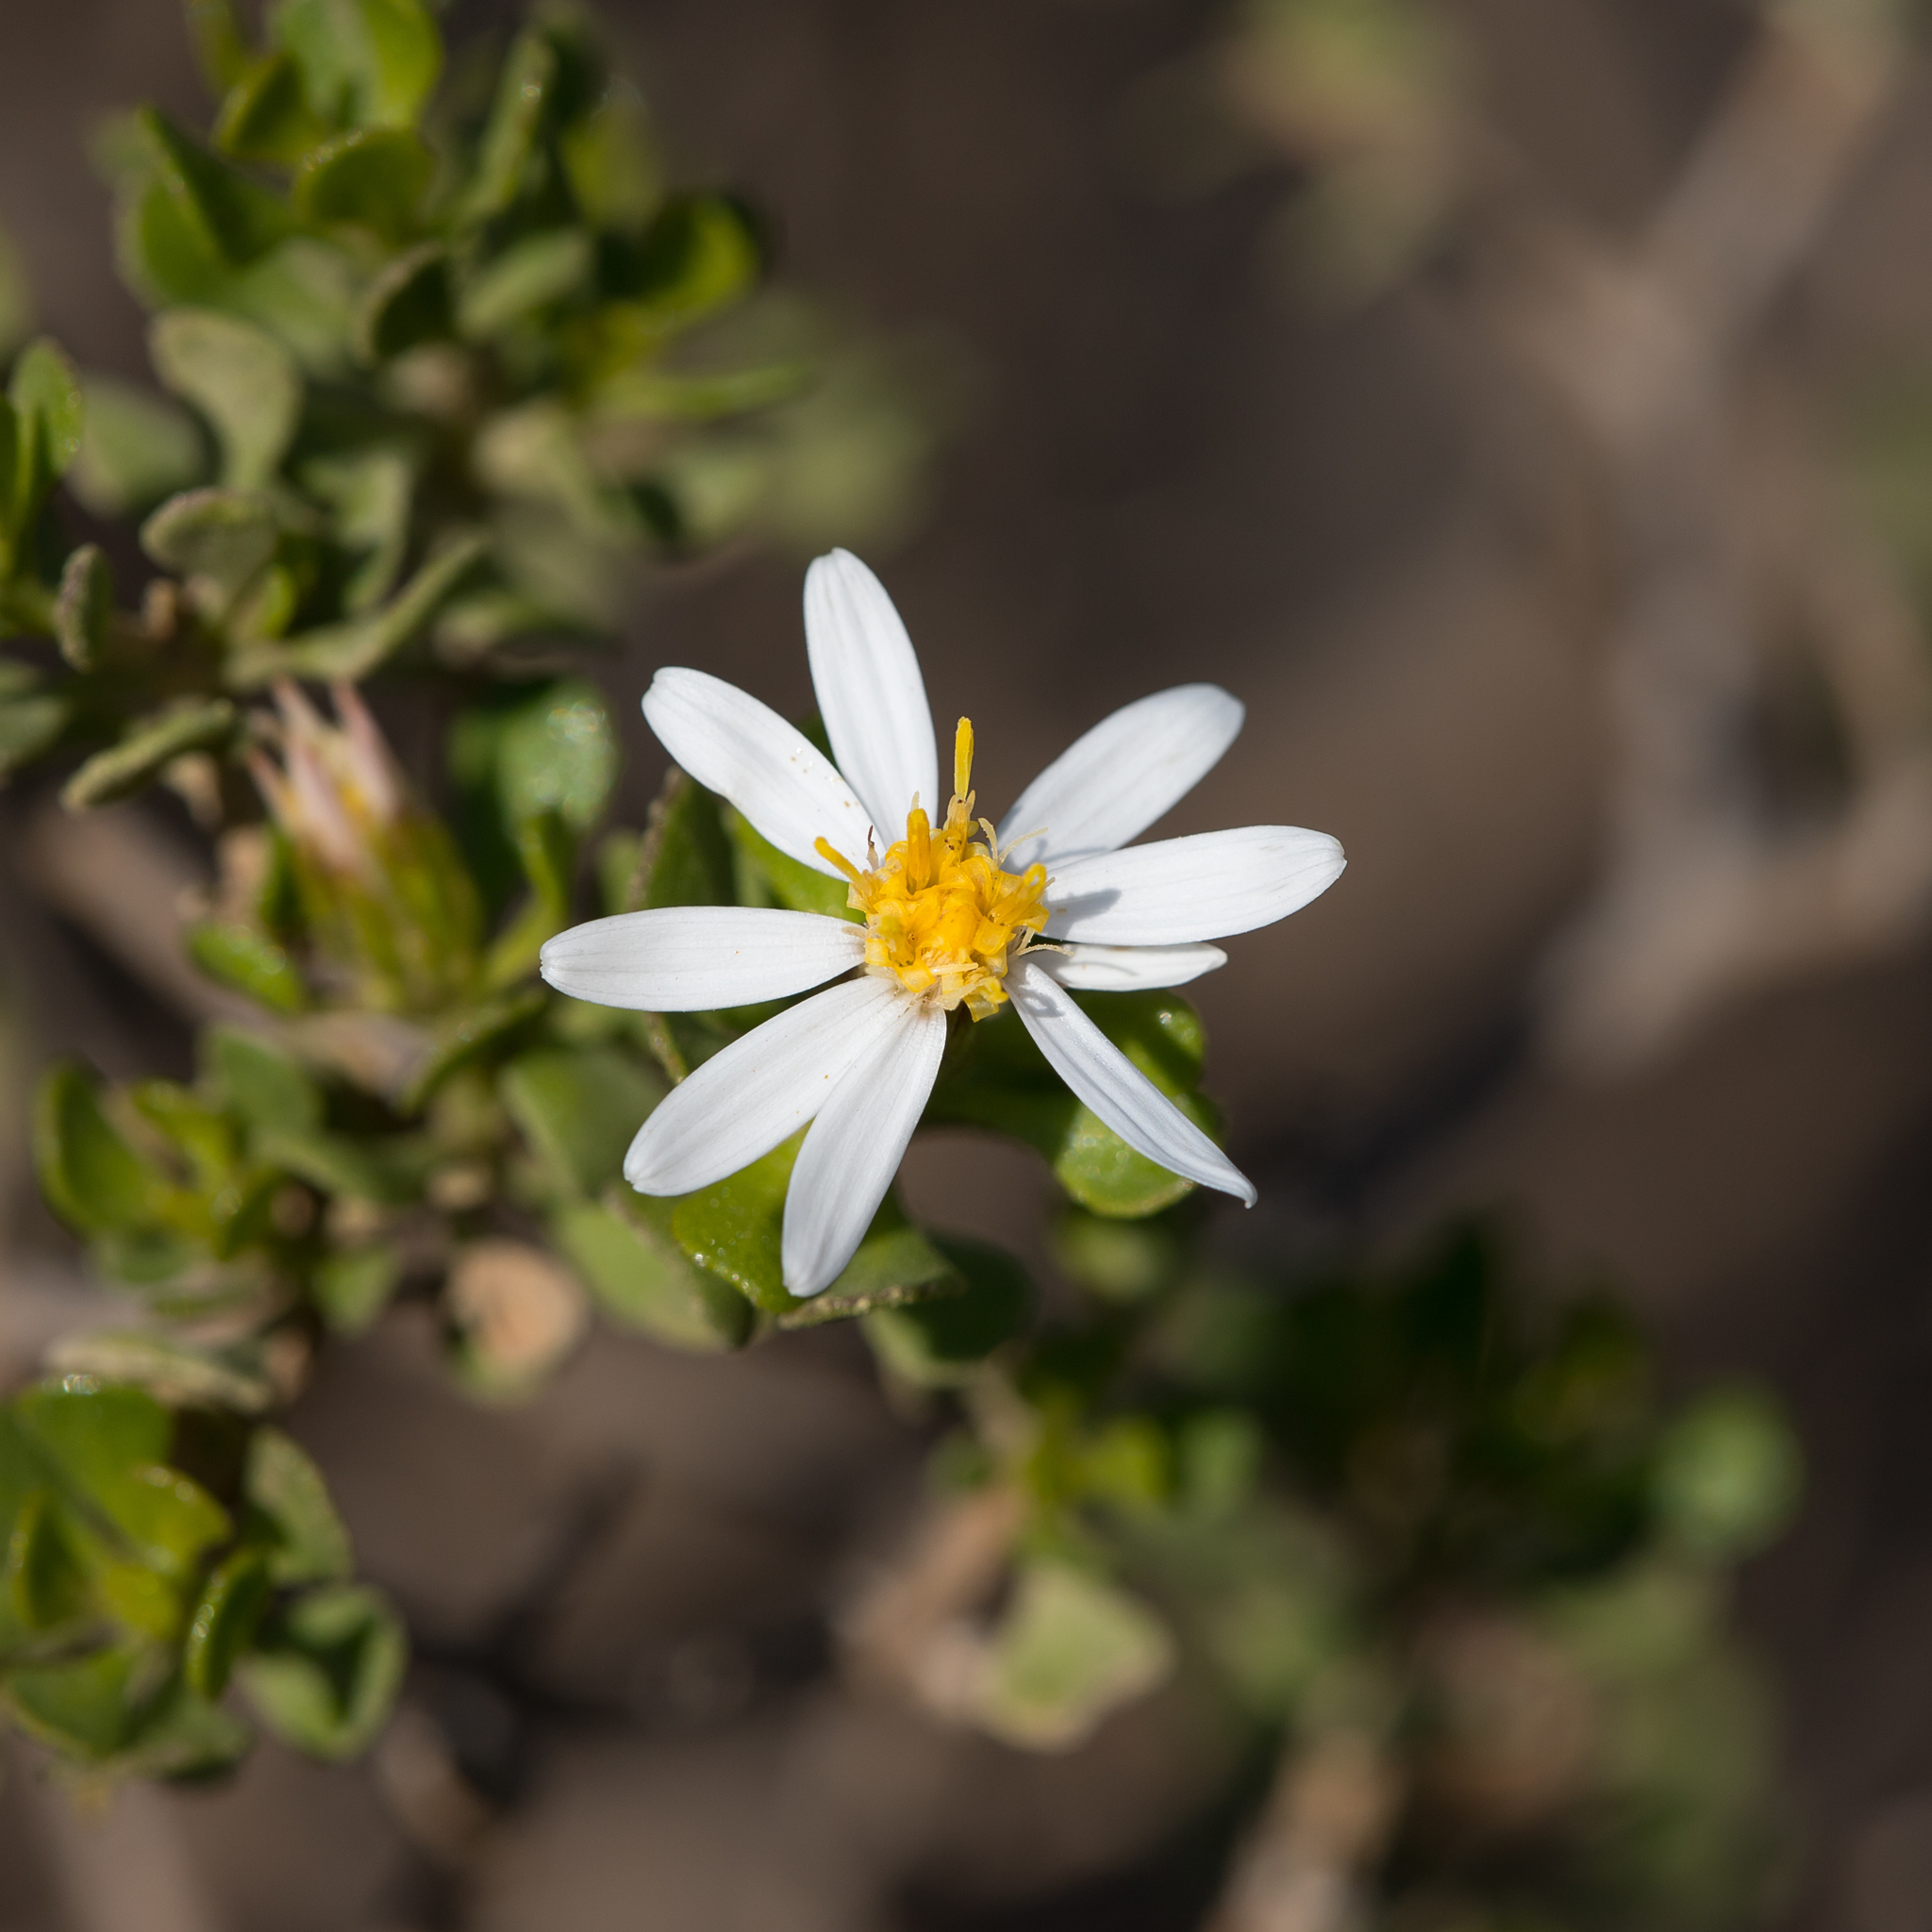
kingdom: Plantae
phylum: Tracheophyta
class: Magnoliopsida
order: Asterales
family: Asteraceae
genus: Walsholaria
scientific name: Walsholaria muelleri
